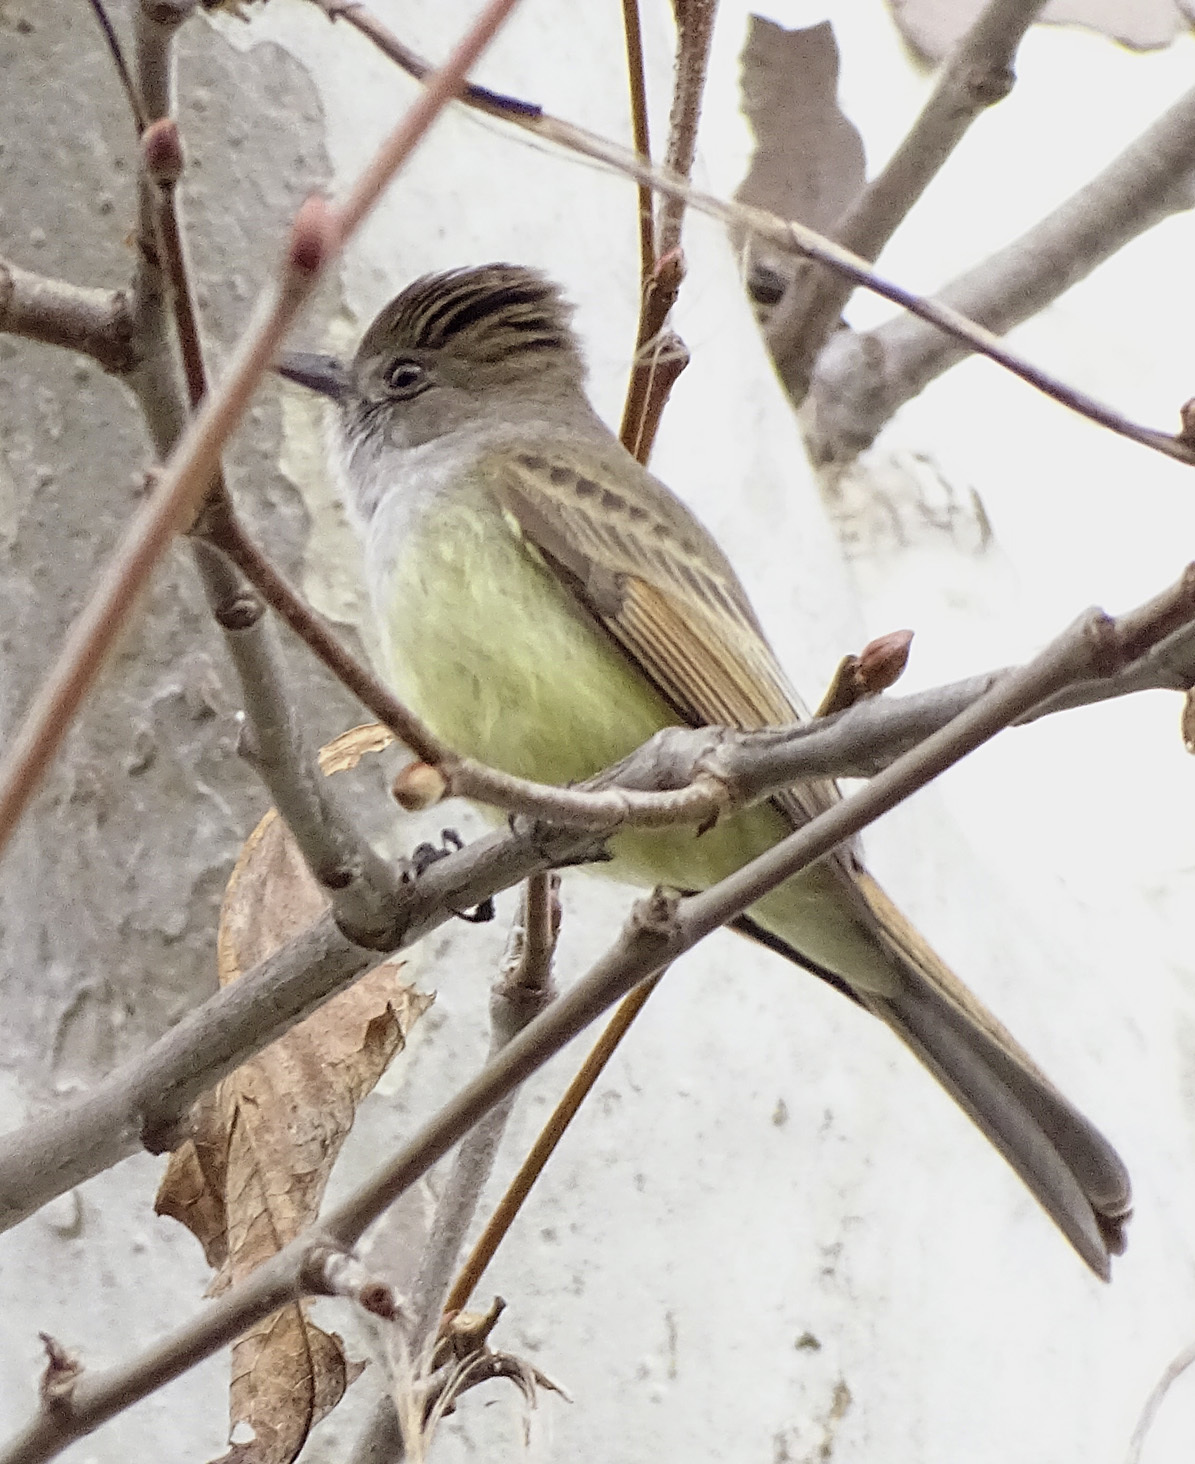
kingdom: Animalia
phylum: Chordata
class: Aves
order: Passeriformes
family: Tyrannidae
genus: Myiarchus
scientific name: Myiarchus tuberculifer
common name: Dusky-capped flycatcher
